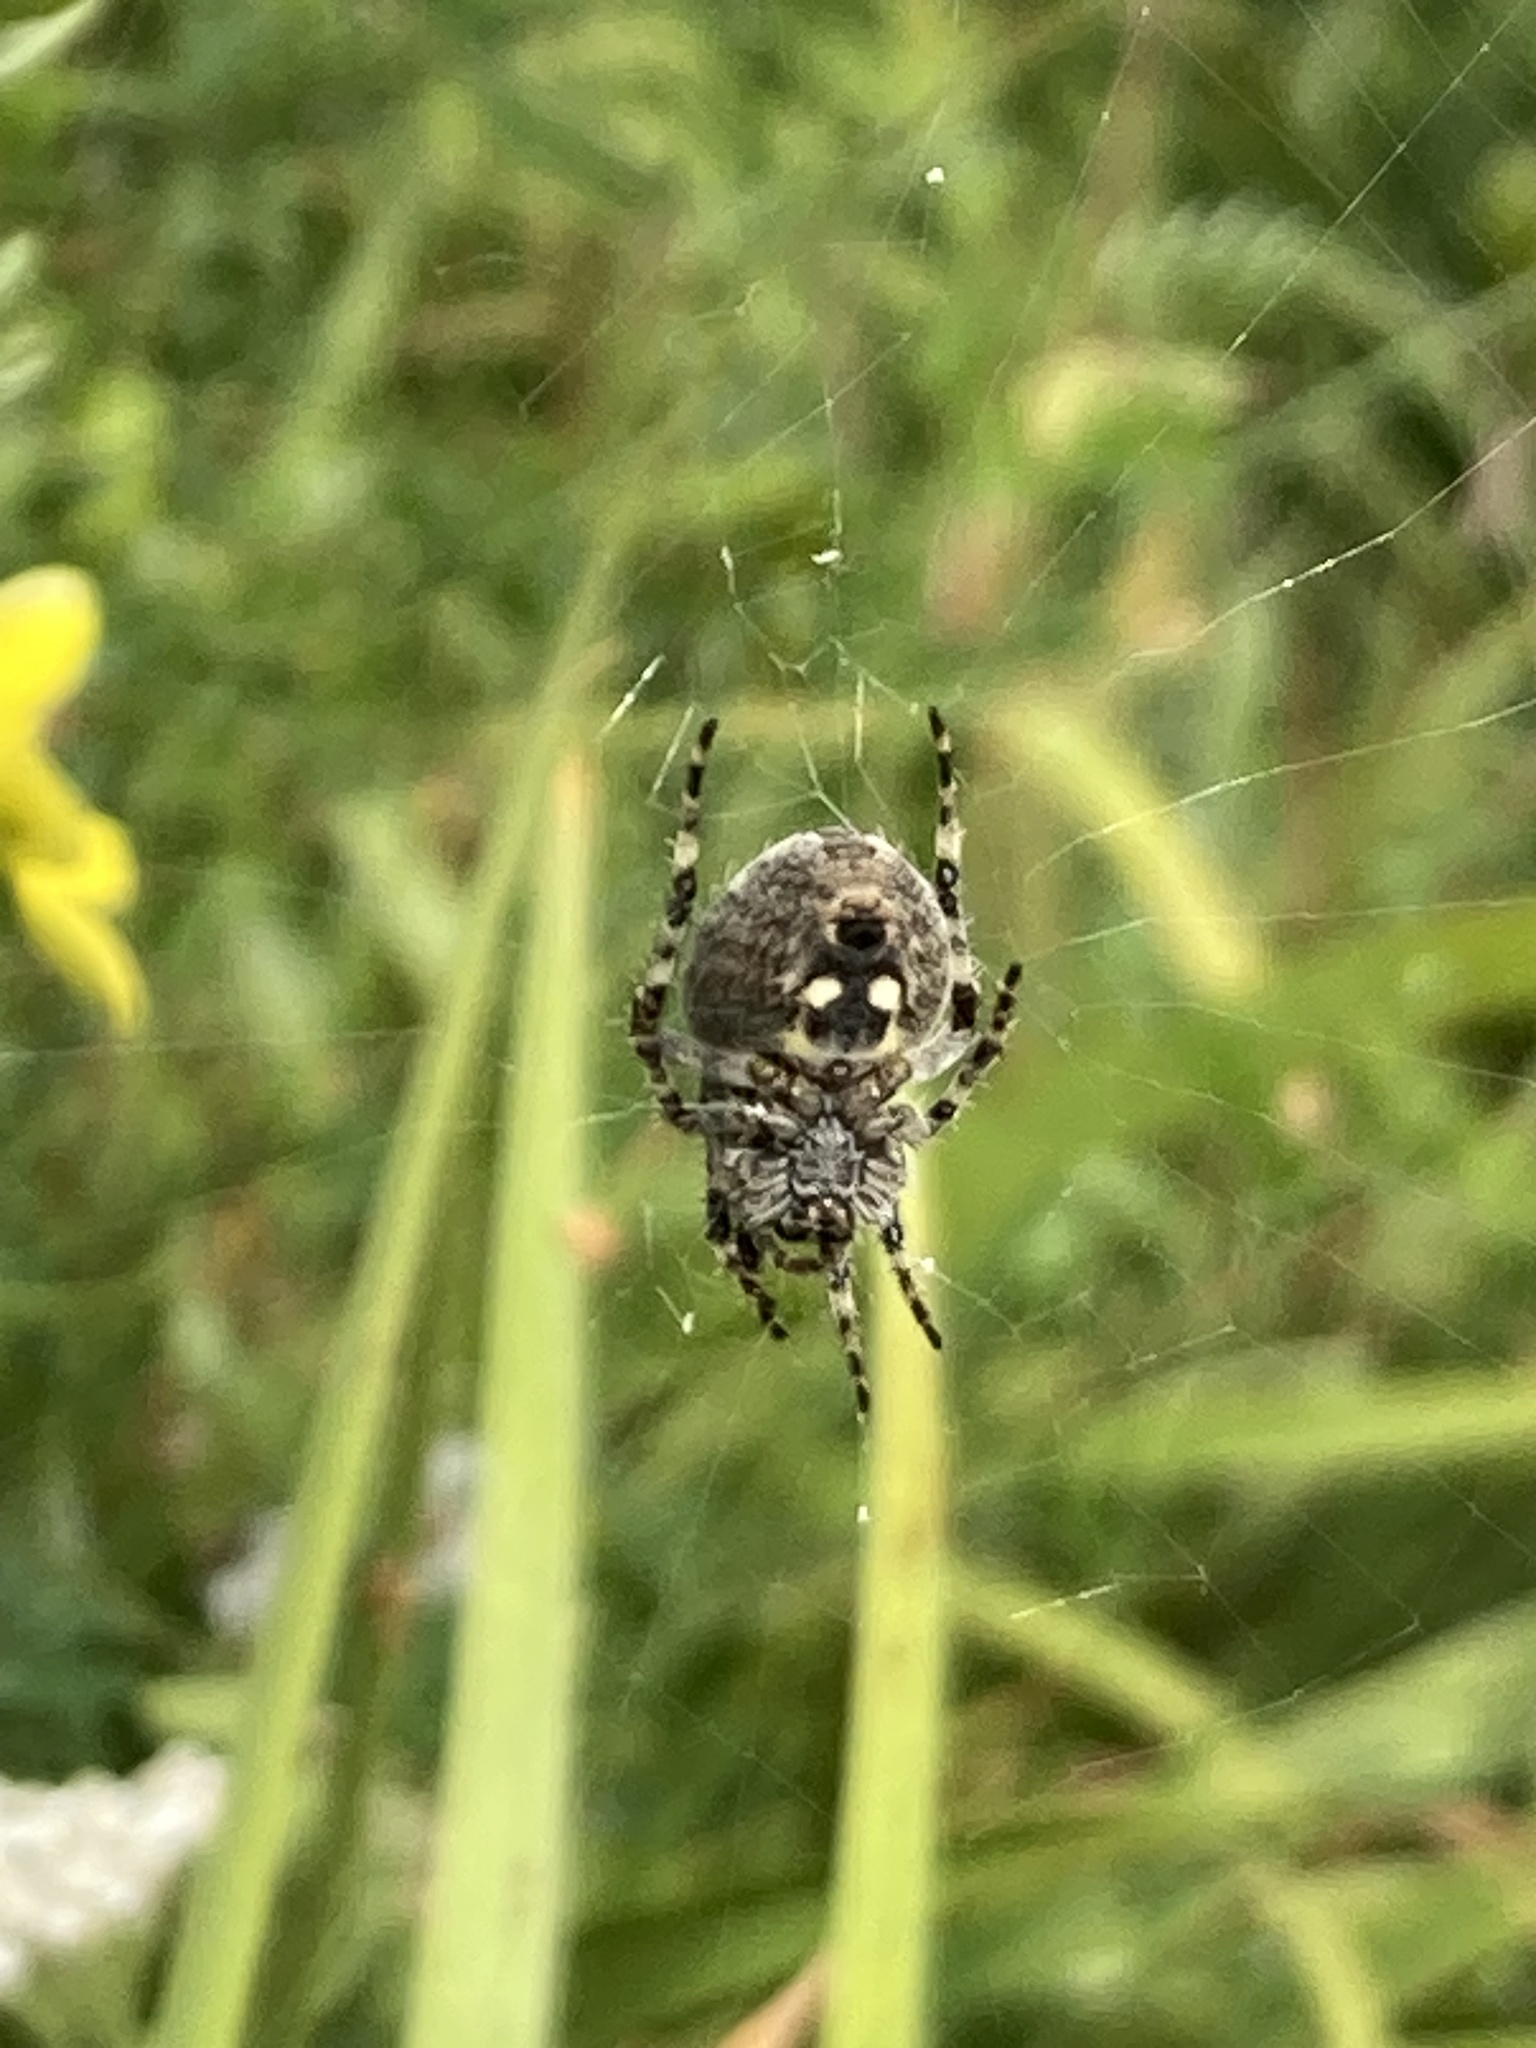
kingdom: Animalia
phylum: Arthropoda
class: Arachnida
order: Araneae
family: Araneidae
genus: Araneus
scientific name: Araneus nordmanni
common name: Nordmann's orbweaver
